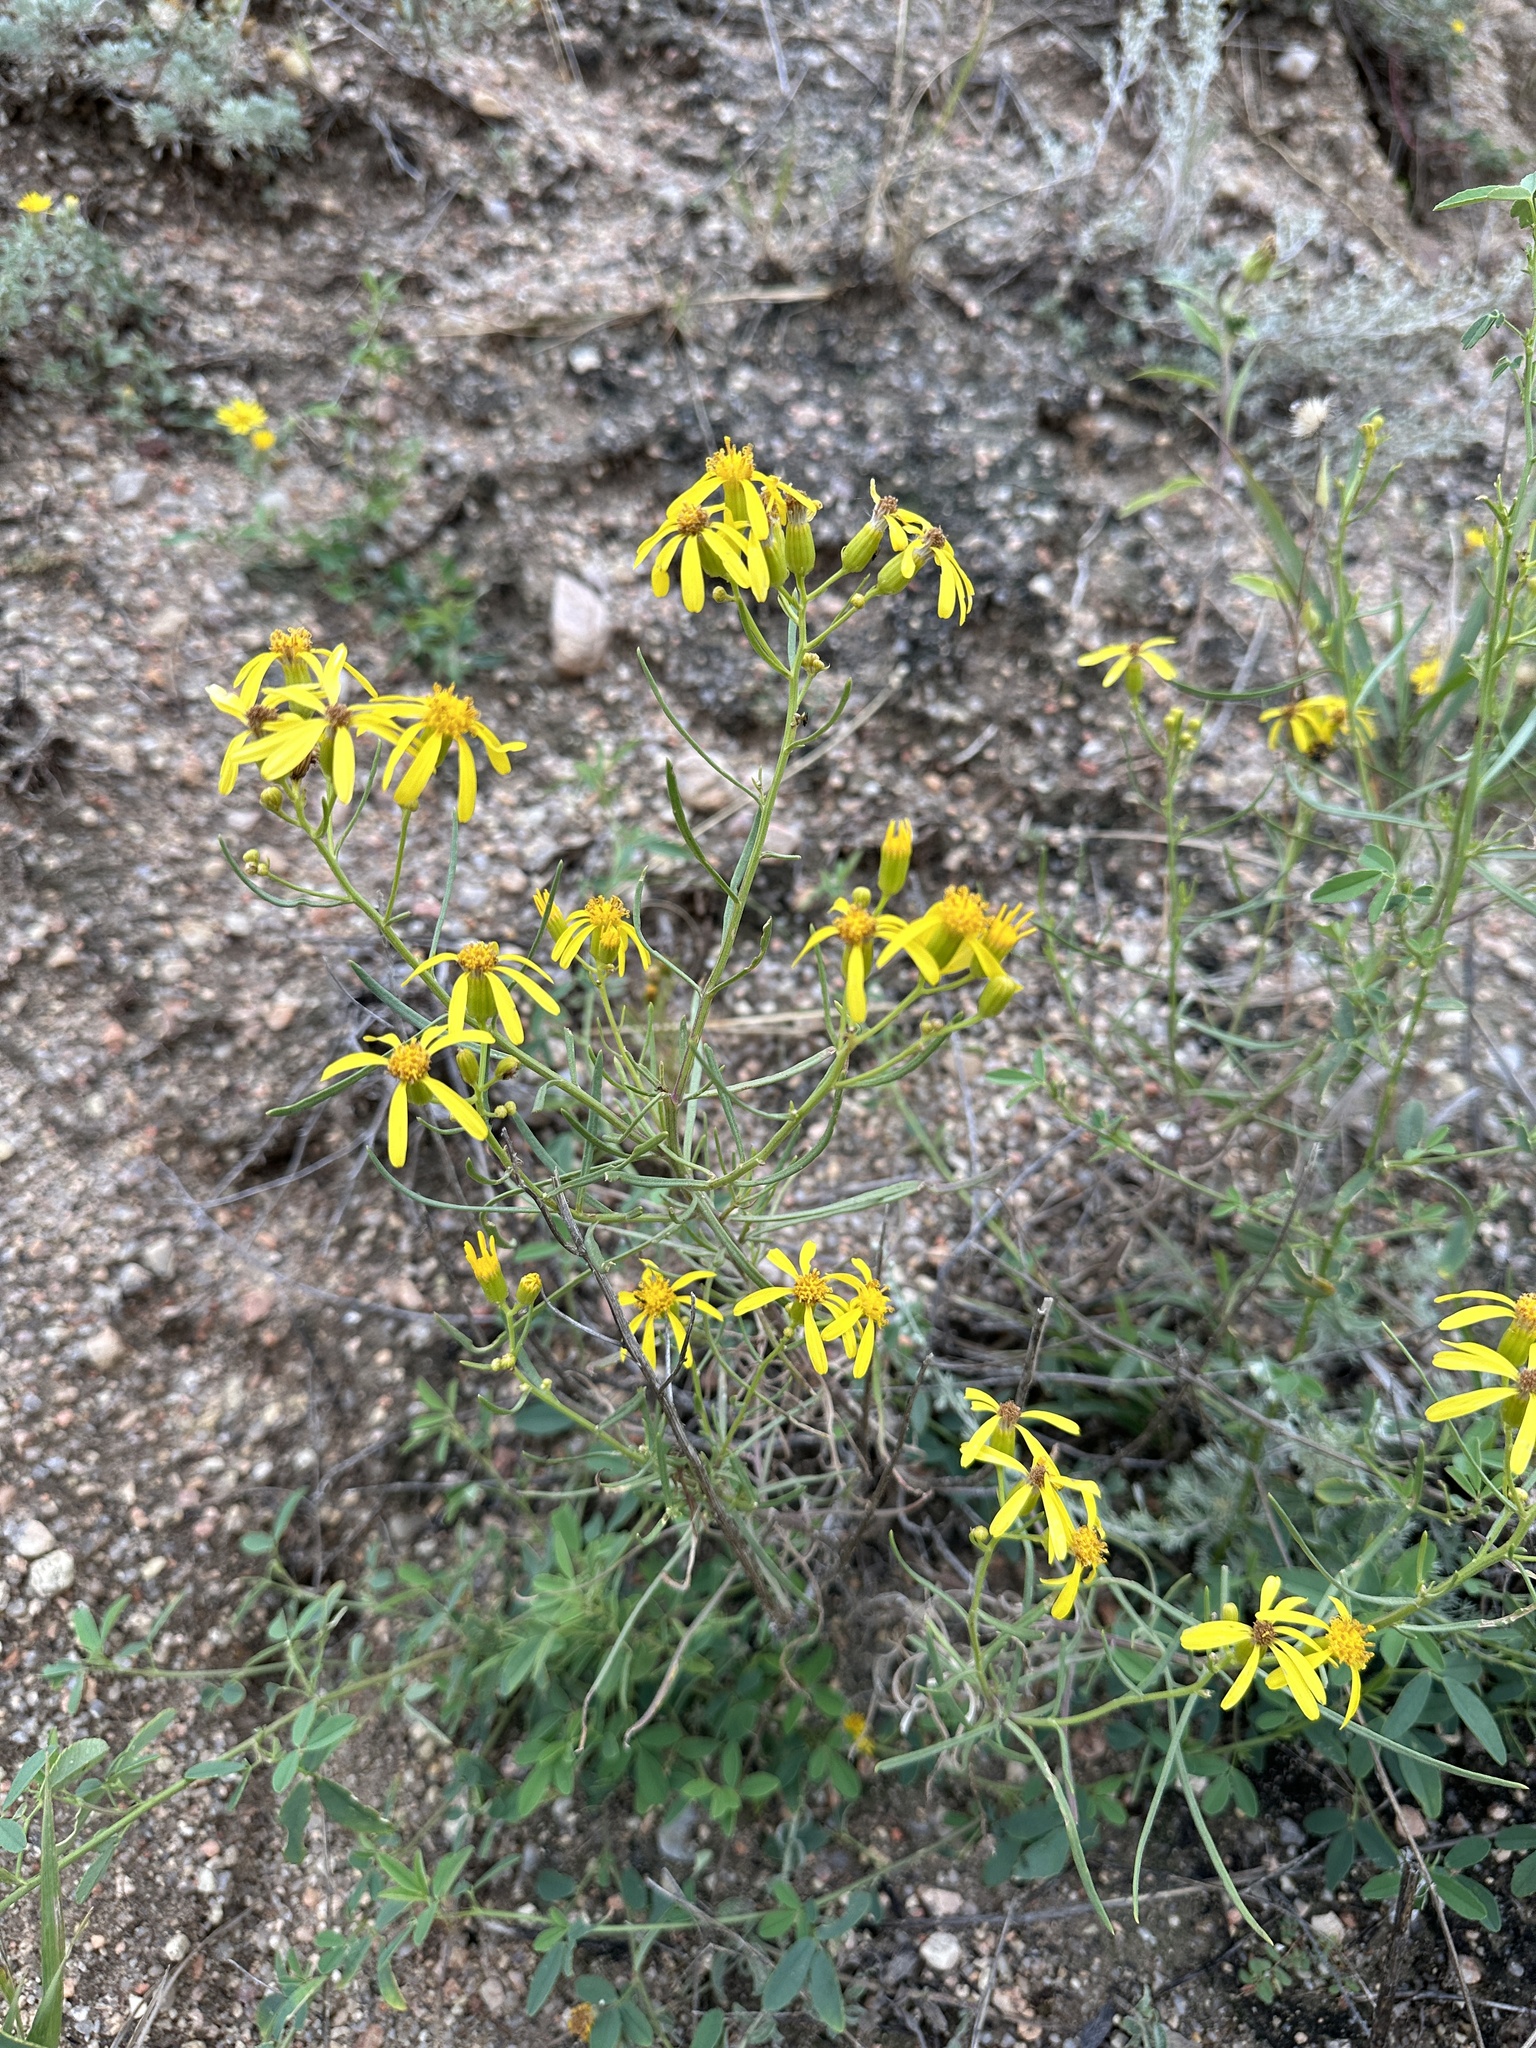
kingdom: Plantae
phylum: Tracheophyta
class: Magnoliopsida
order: Asterales
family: Asteraceae
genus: Senecio
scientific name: Senecio spartioides
